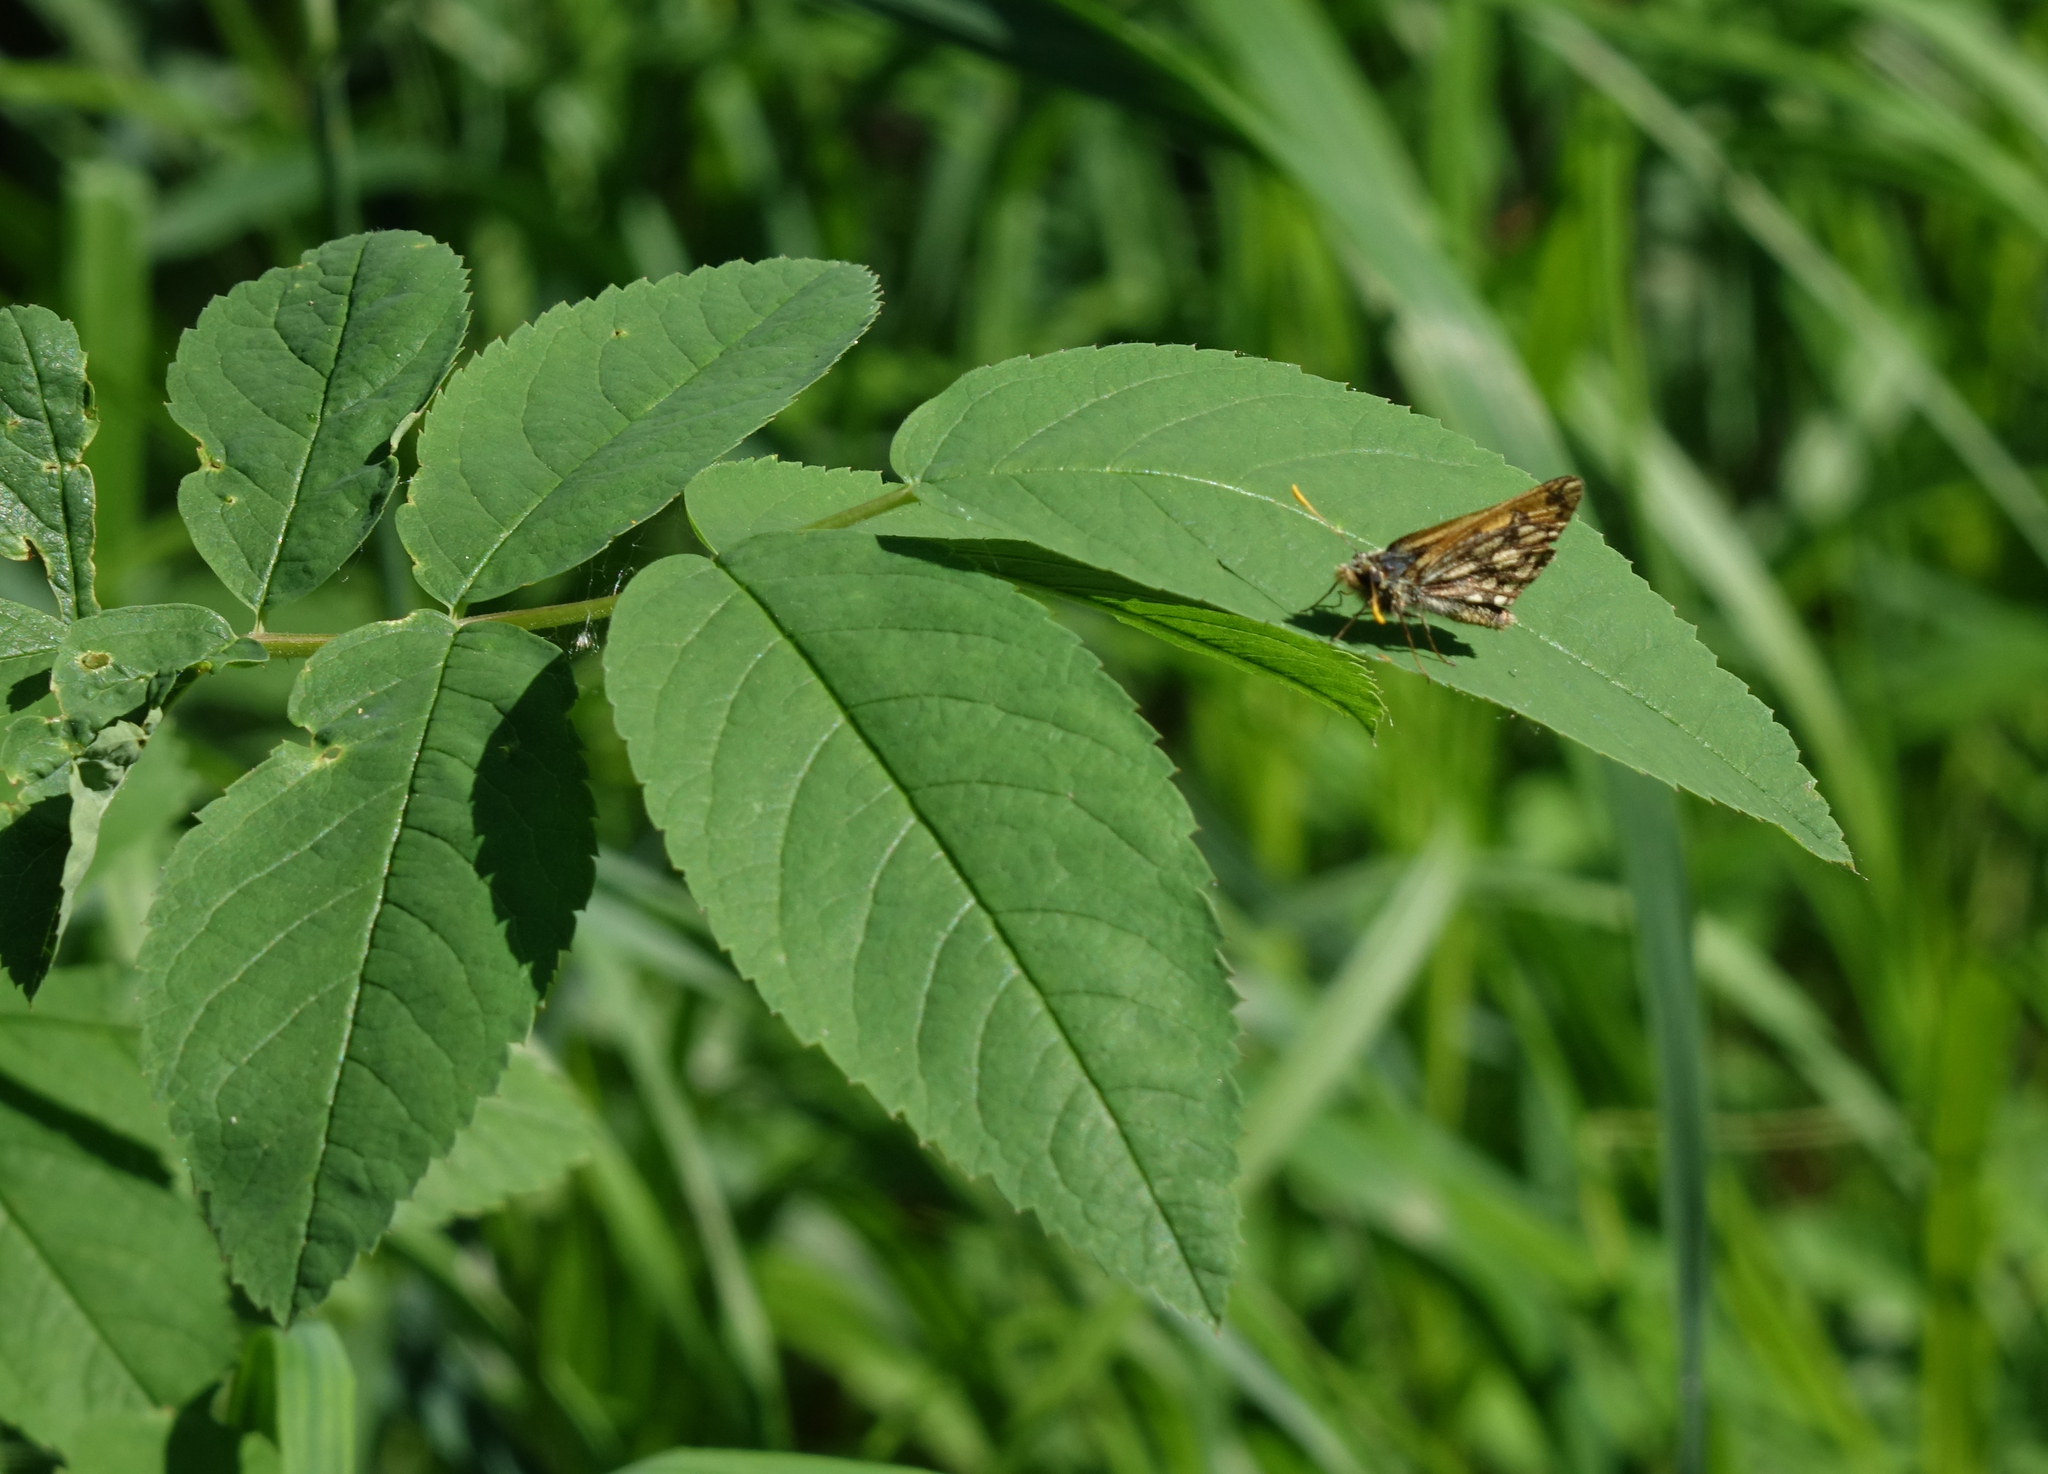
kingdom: Animalia
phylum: Arthropoda
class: Insecta
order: Lepidoptera
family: Hesperiidae
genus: Carterocephalus
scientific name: Carterocephalus silvicola
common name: Northern chequered skipper
